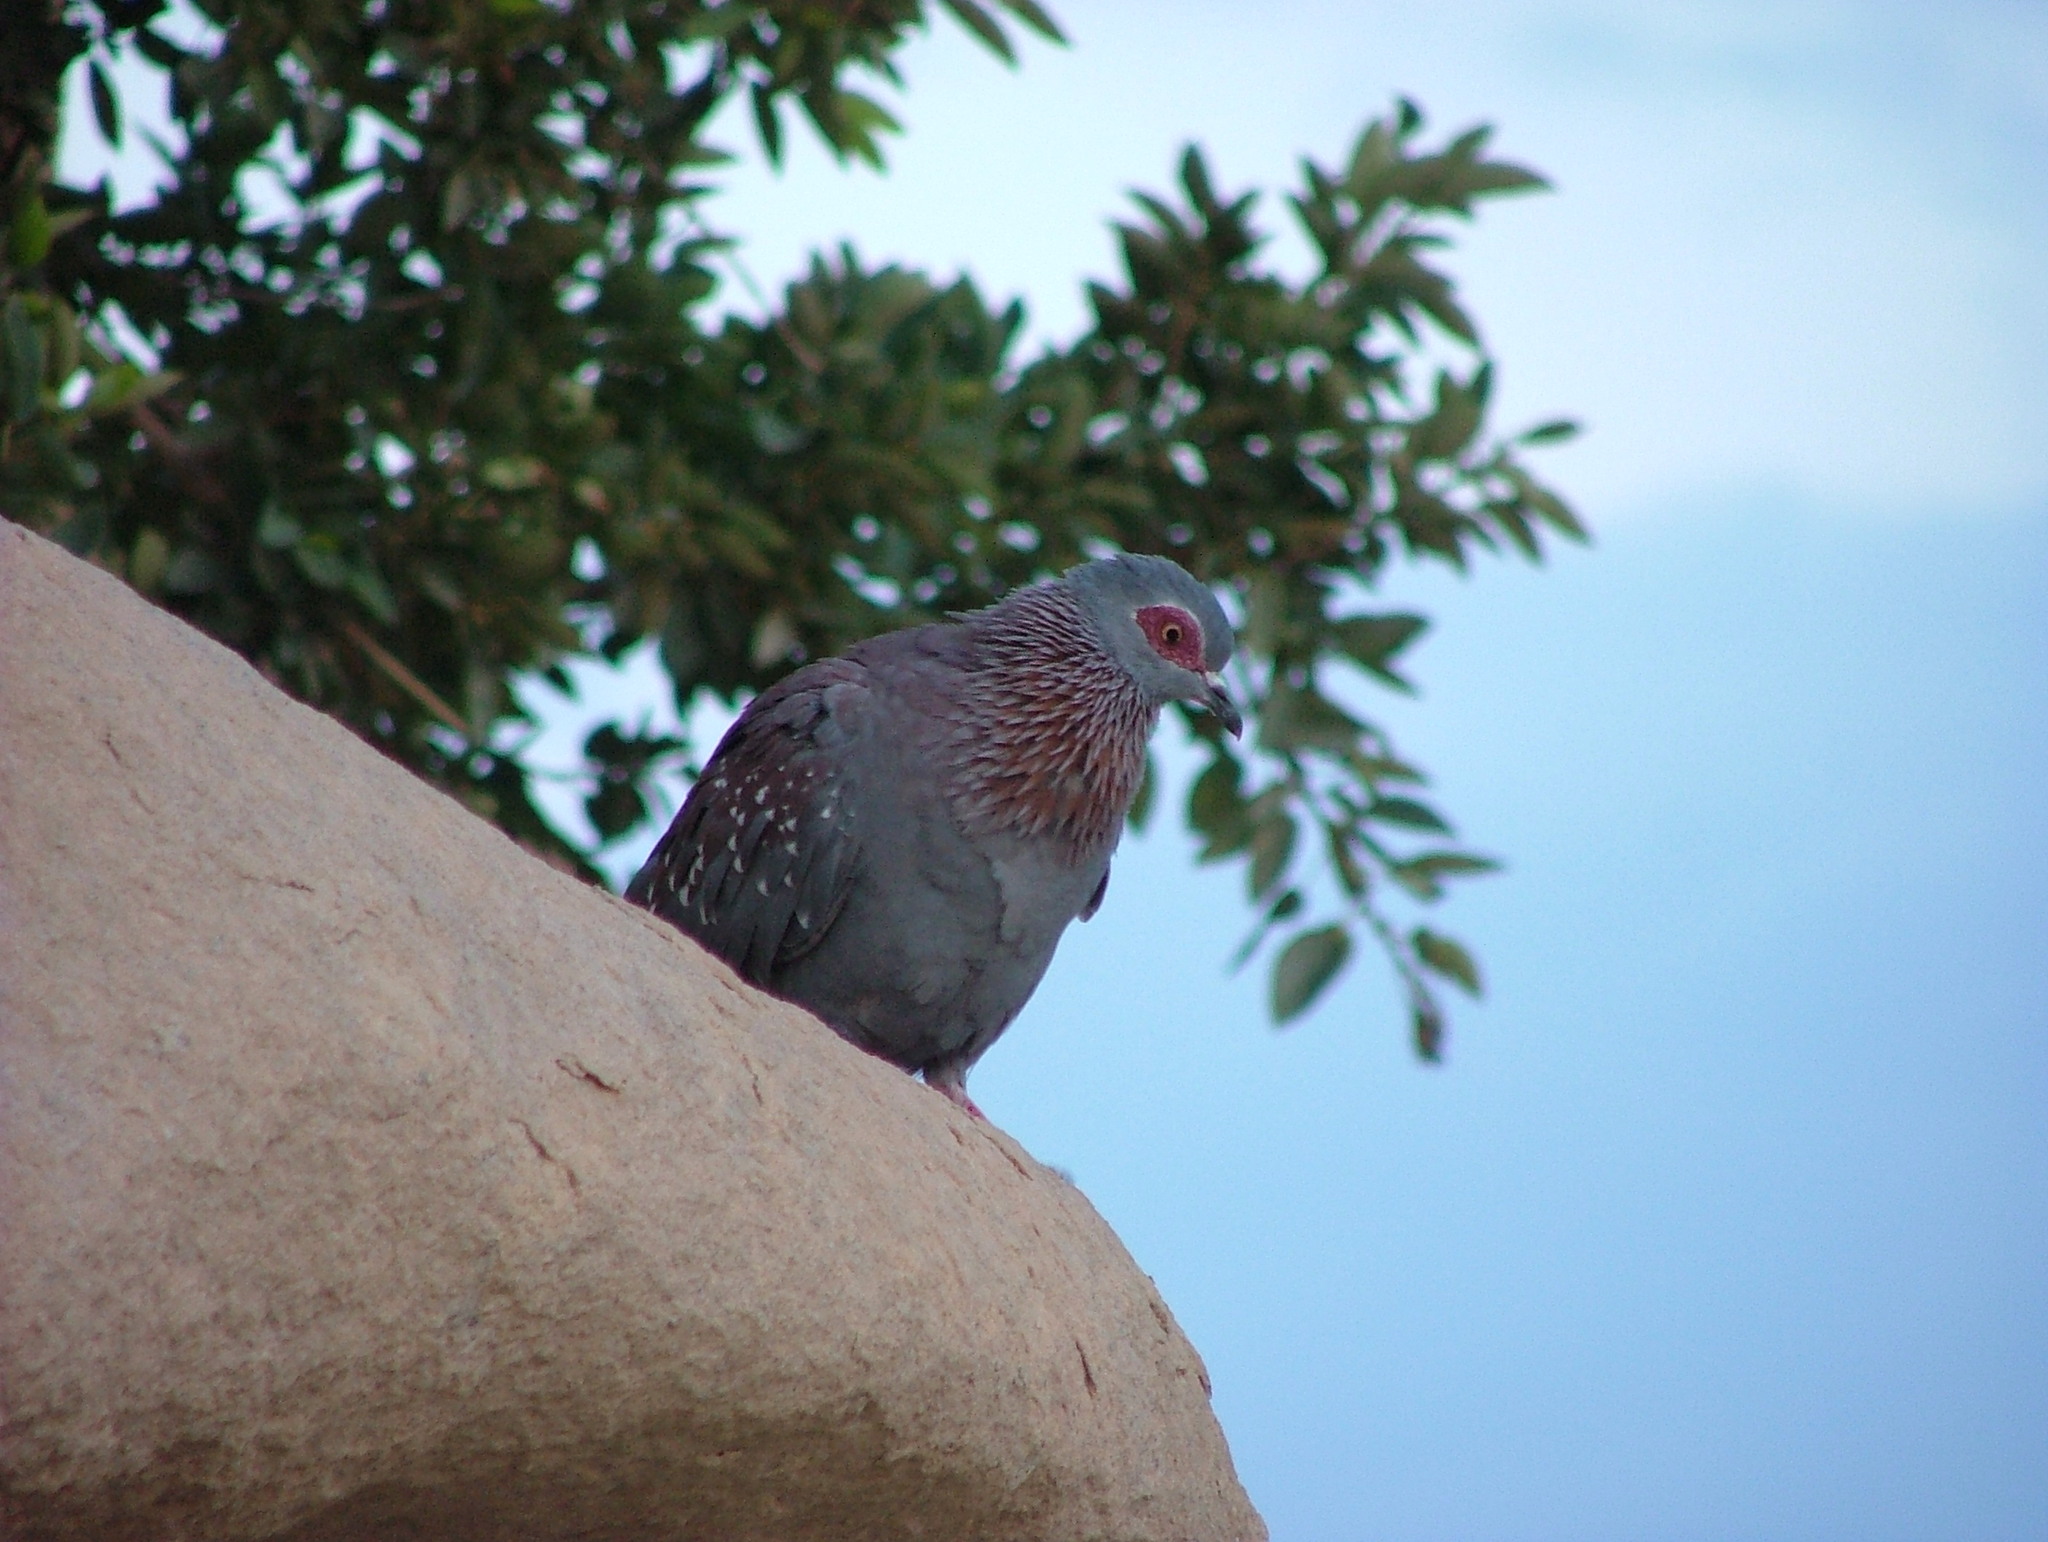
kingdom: Animalia
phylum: Chordata
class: Aves
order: Columbiformes
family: Columbidae
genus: Columba
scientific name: Columba guinea
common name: Speckled pigeon
